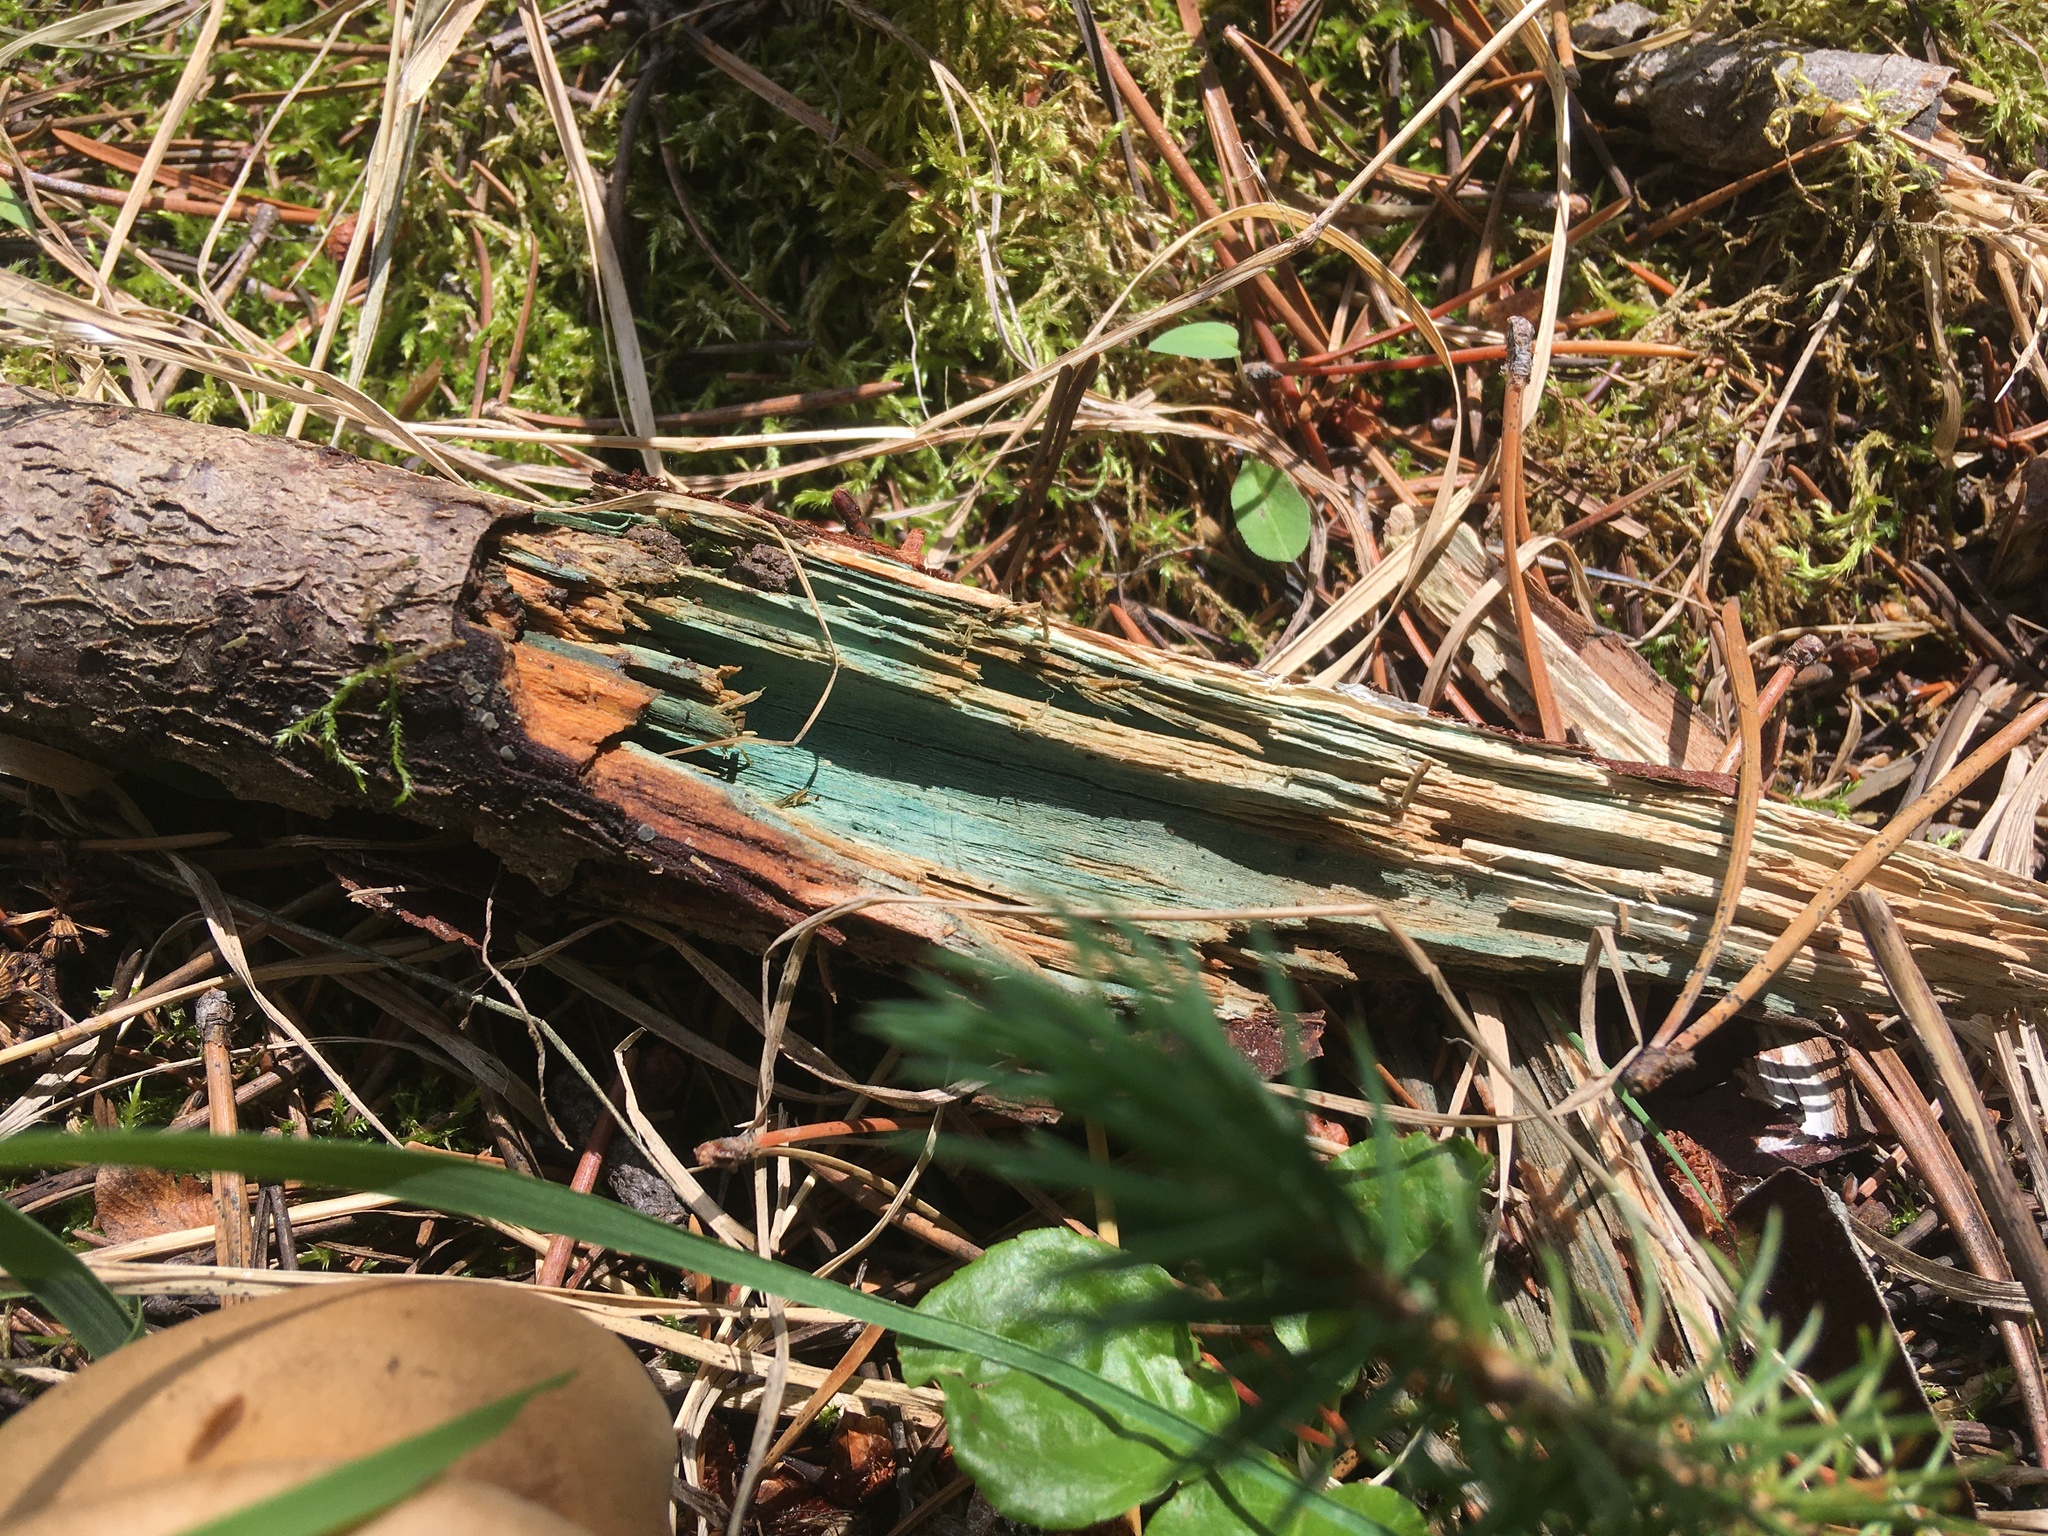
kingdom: Fungi
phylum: Ascomycota
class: Leotiomycetes
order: Helotiales
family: Chlorociboriaceae
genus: Chlorociboria
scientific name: Chlorociboria aeruginascens
